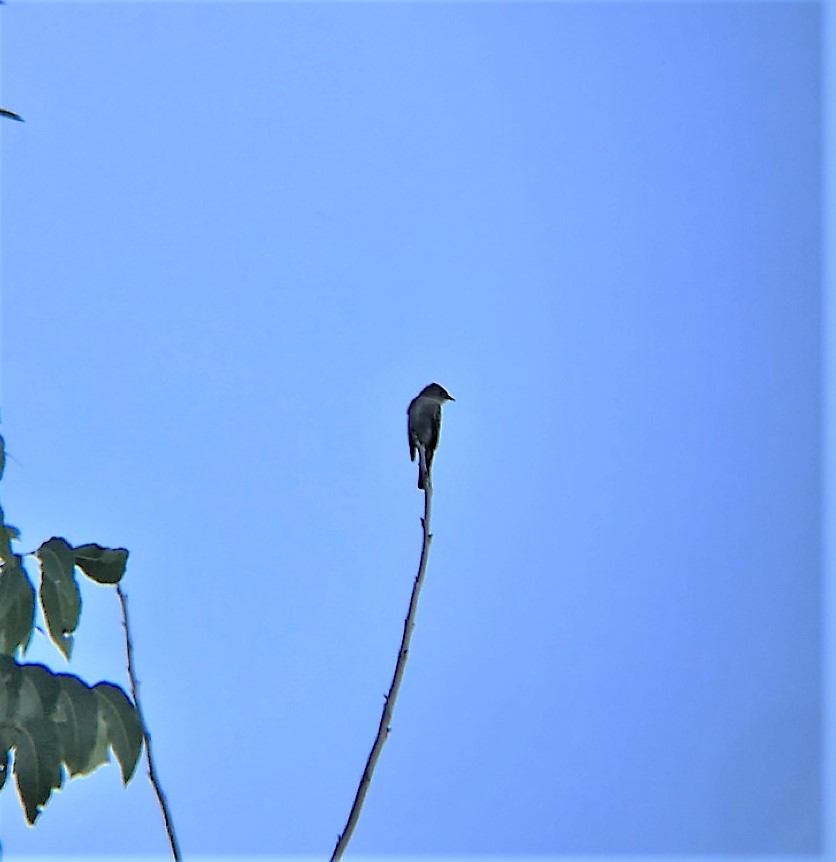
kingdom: Animalia
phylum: Chordata
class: Aves
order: Passeriformes
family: Tyrannidae
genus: Contopus
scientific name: Contopus cooperi
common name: Olive-sided flycatcher
